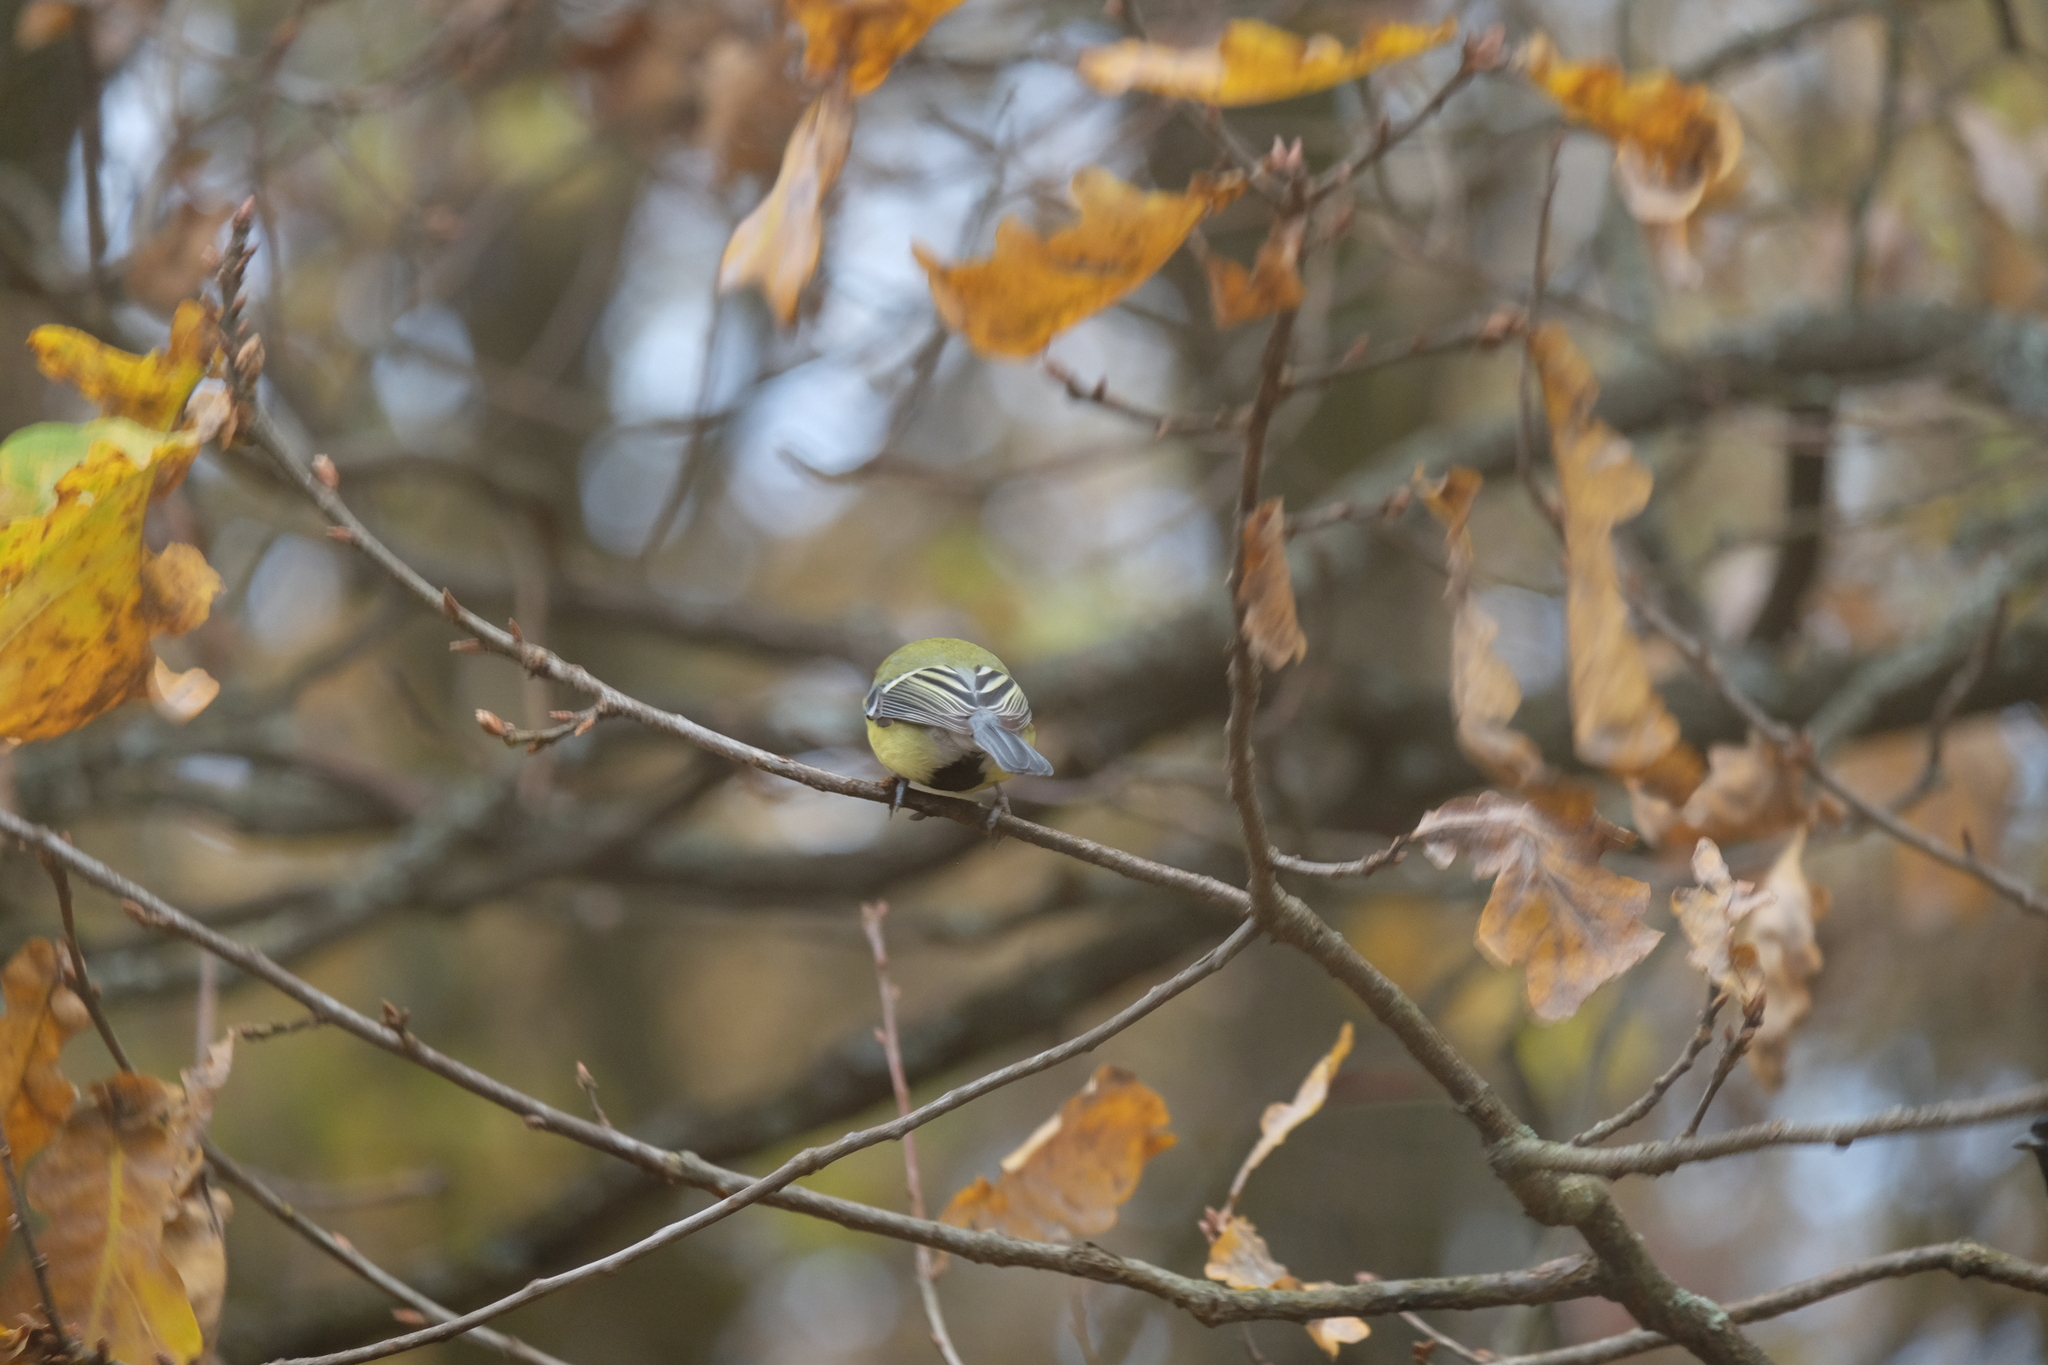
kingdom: Animalia
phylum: Chordata
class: Aves
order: Passeriformes
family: Paridae
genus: Parus
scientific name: Parus major
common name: Great tit
